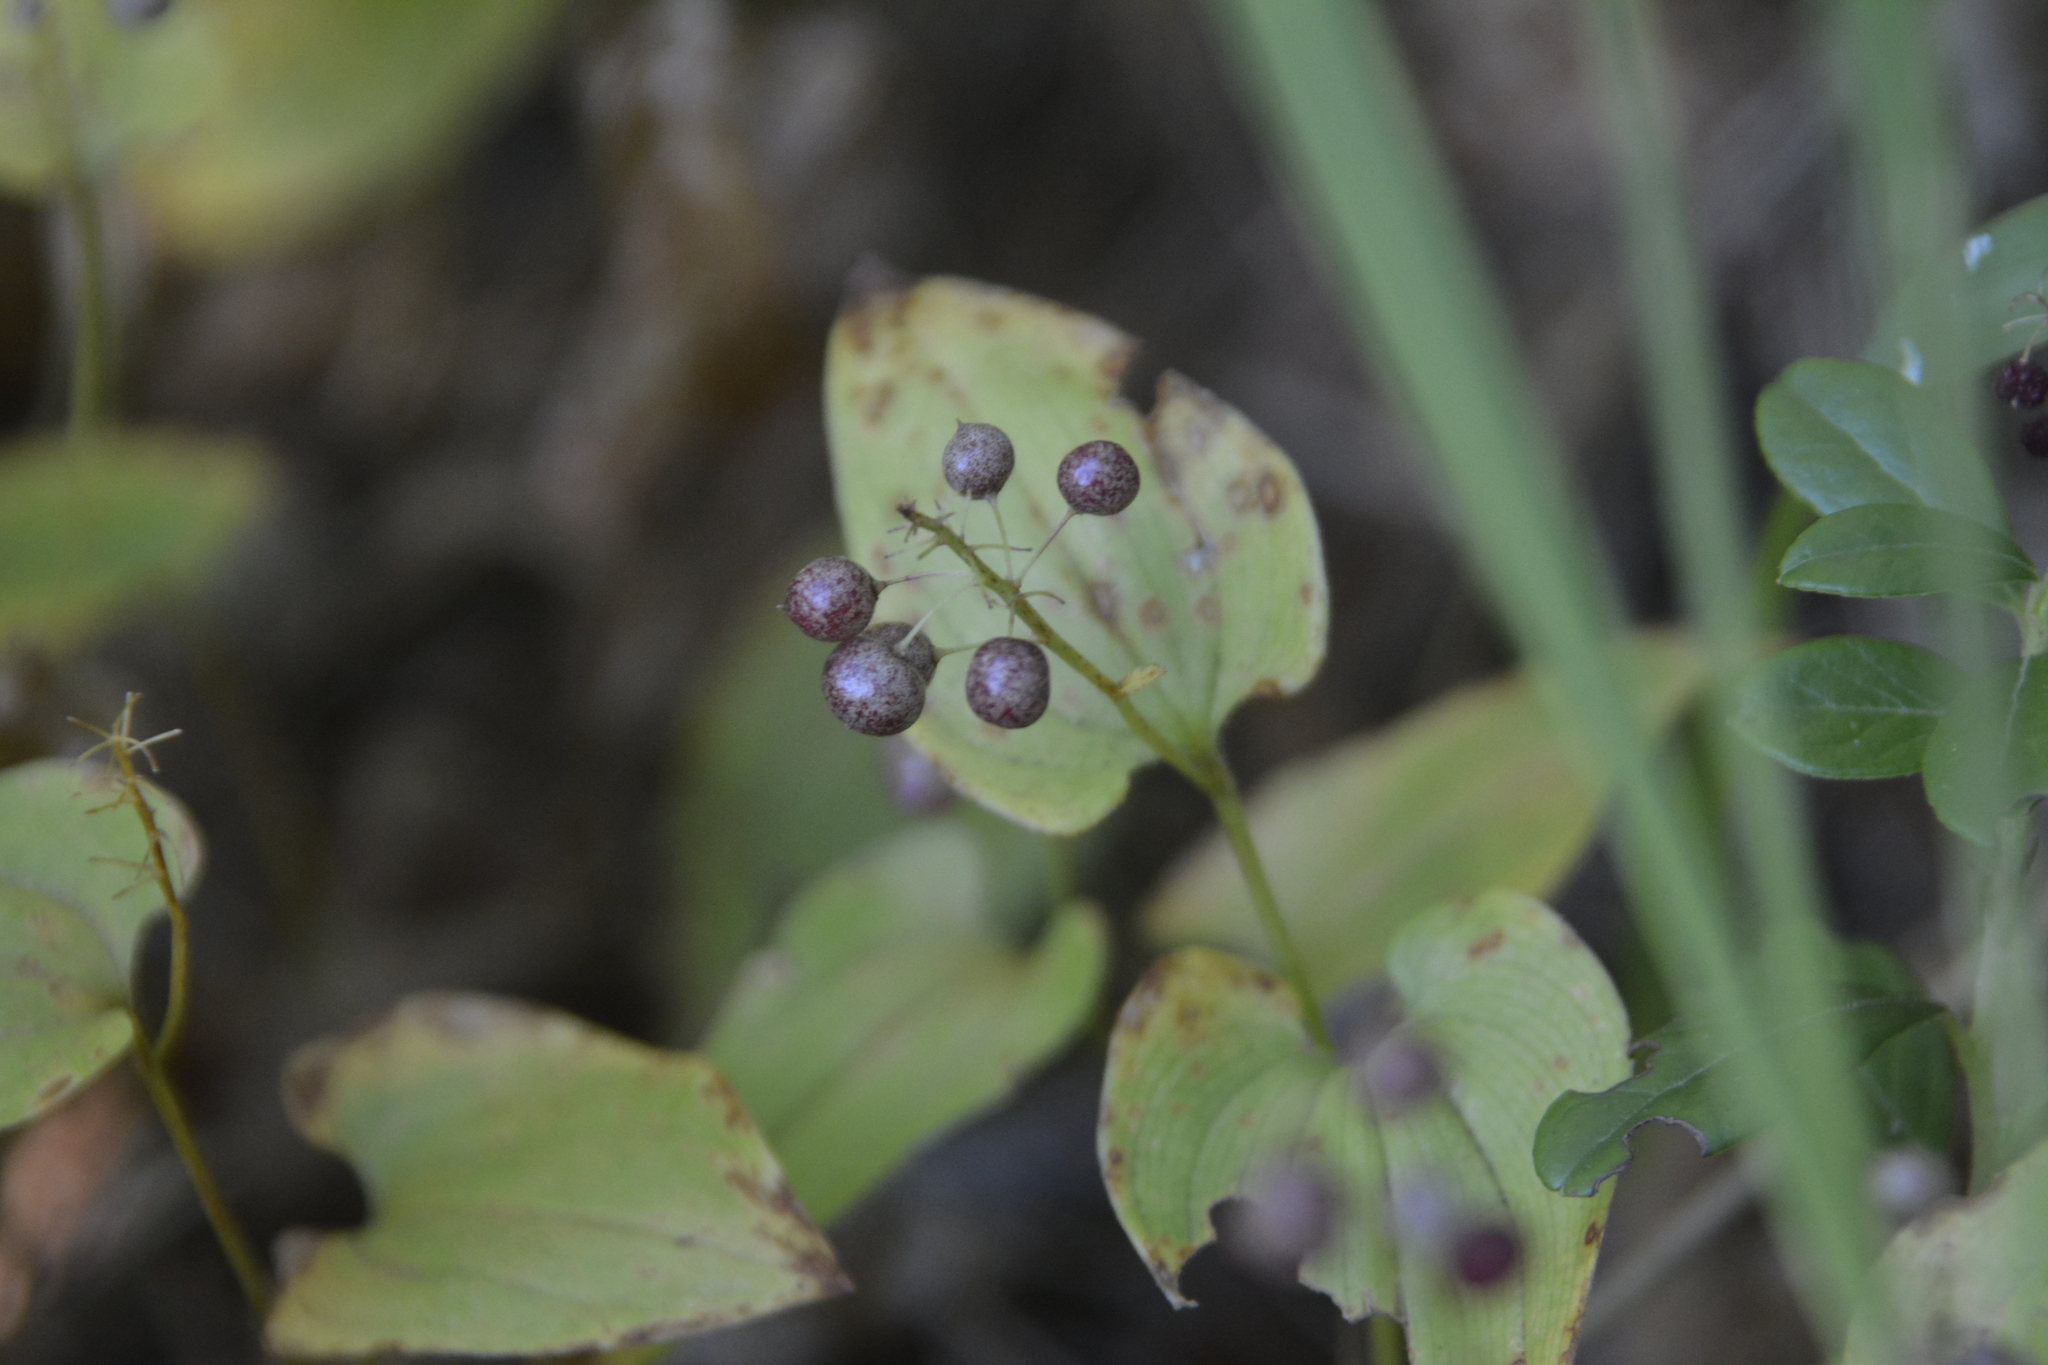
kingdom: Plantae
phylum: Tracheophyta
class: Liliopsida
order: Asparagales
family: Asparagaceae
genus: Maianthemum
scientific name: Maianthemum bifolium
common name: May lily
